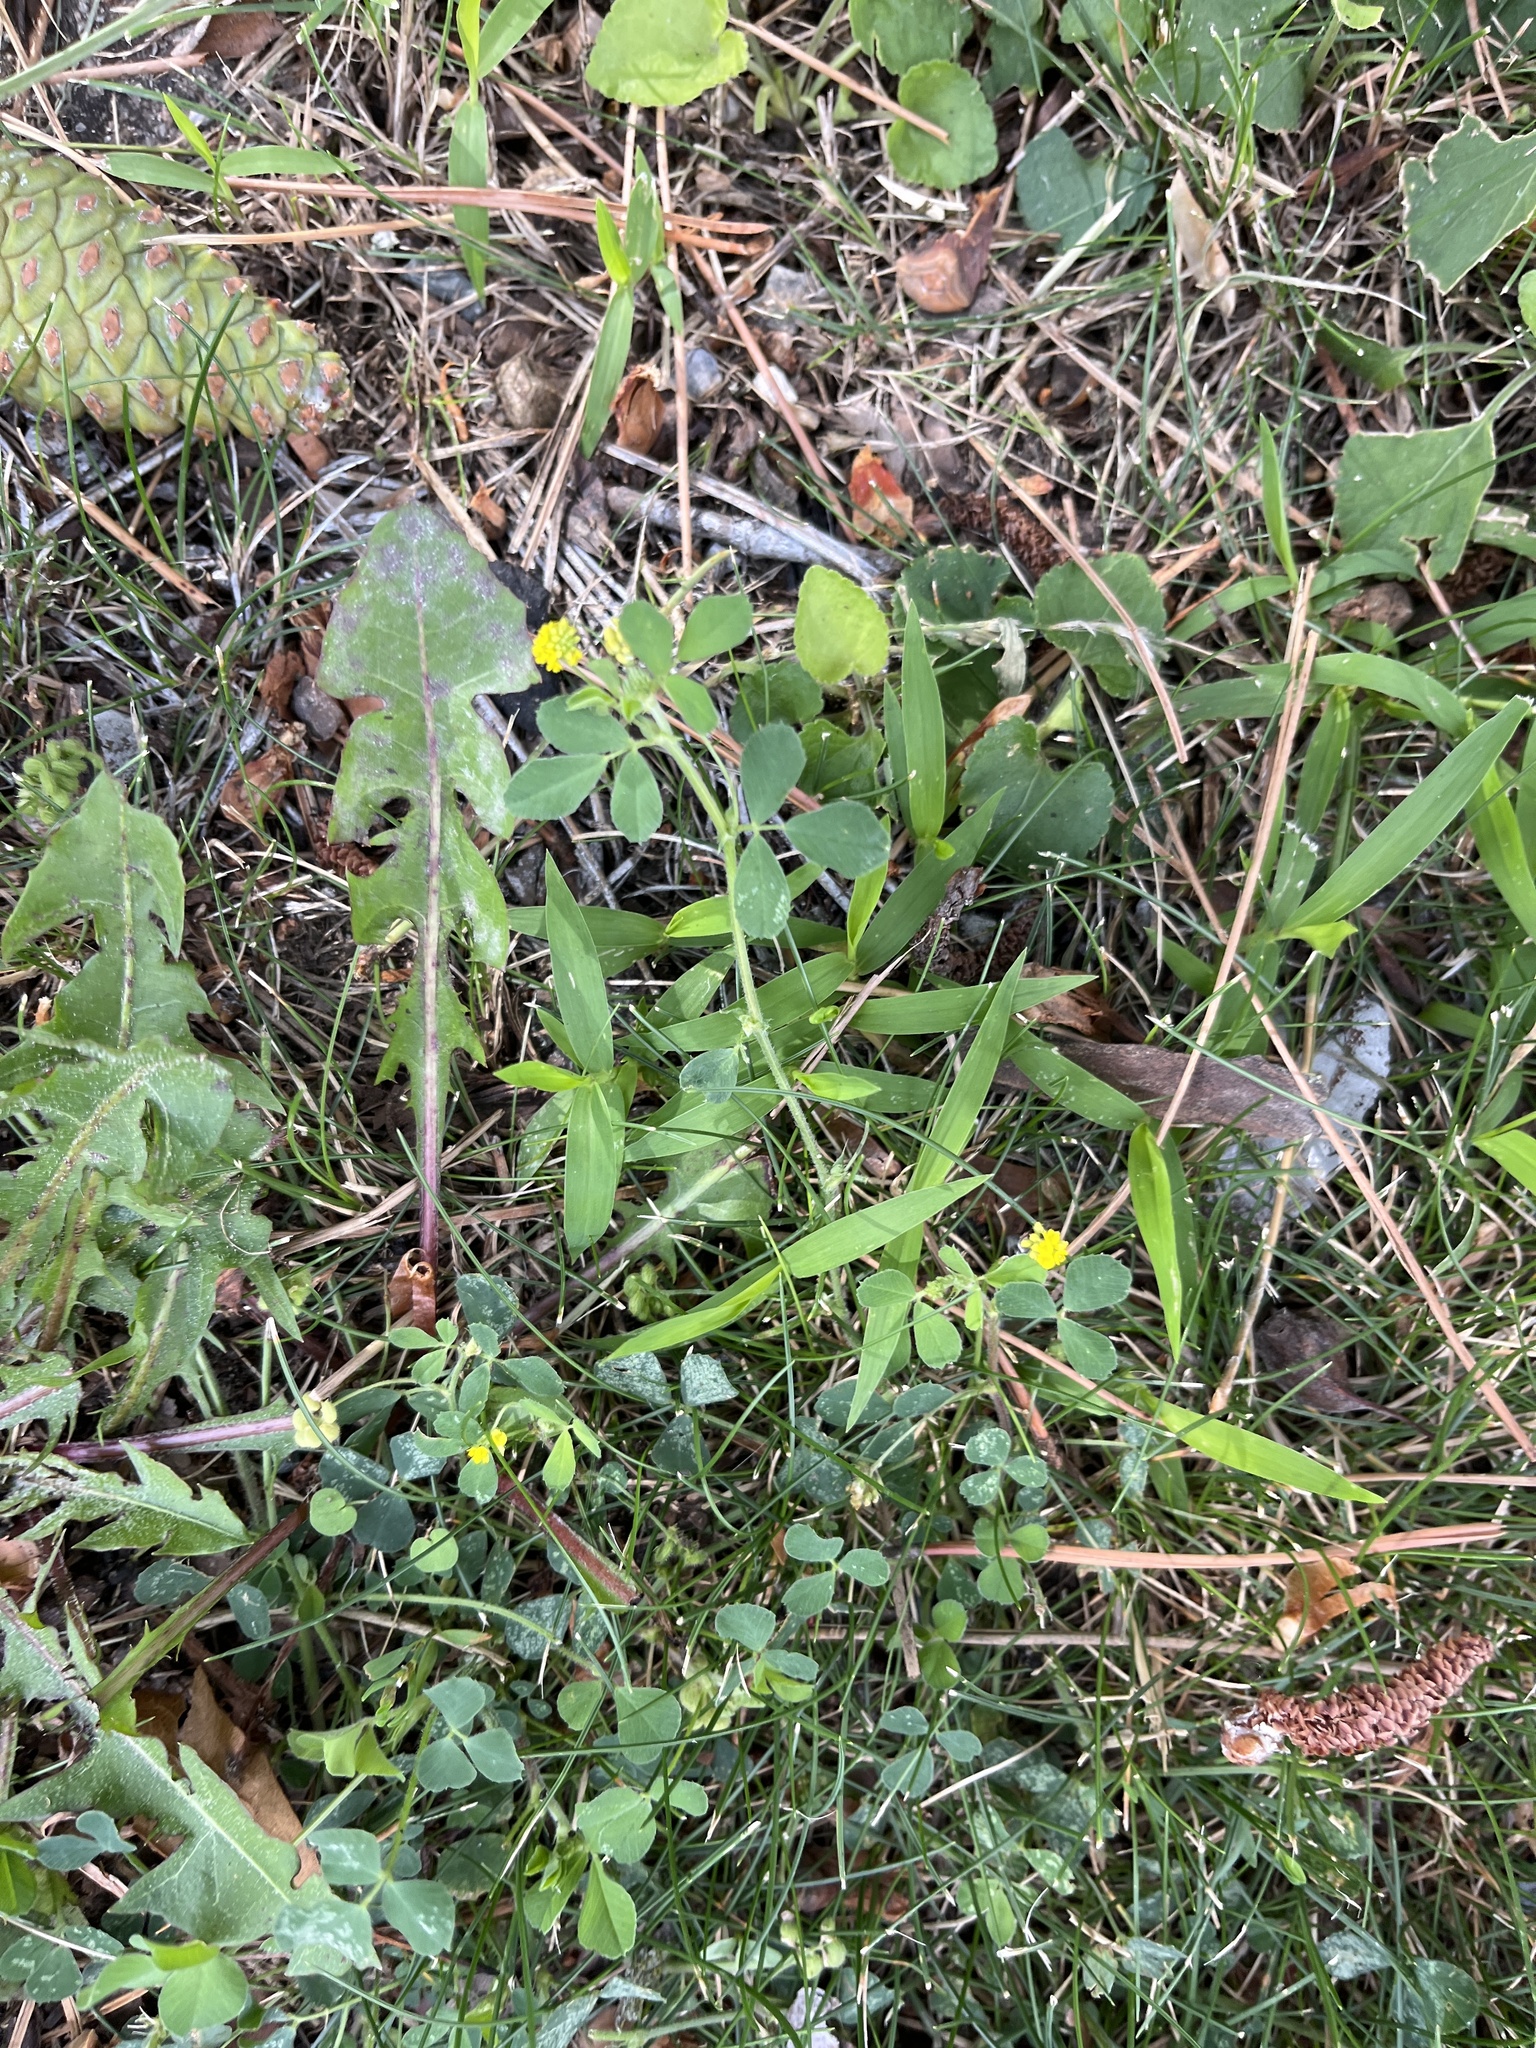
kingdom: Plantae
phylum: Tracheophyta
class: Magnoliopsida
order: Fabales
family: Fabaceae
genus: Medicago
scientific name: Medicago lupulina
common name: Black medick
